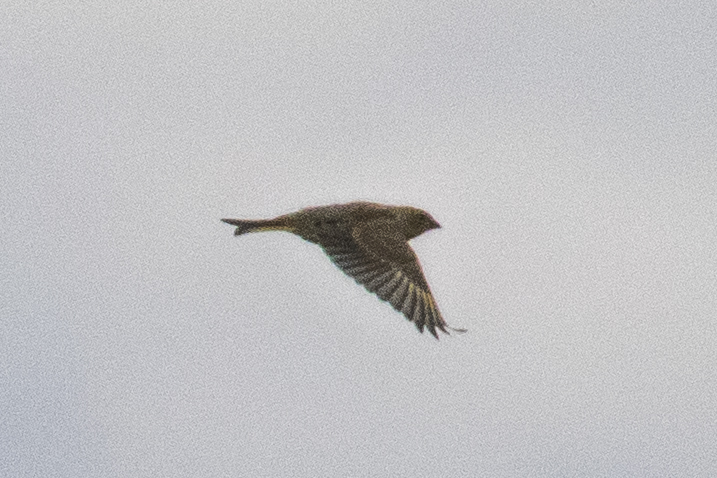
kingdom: Plantae
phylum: Tracheophyta
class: Liliopsida
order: Poales
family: Poaceae
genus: Chloris
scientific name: Chloris chloris
